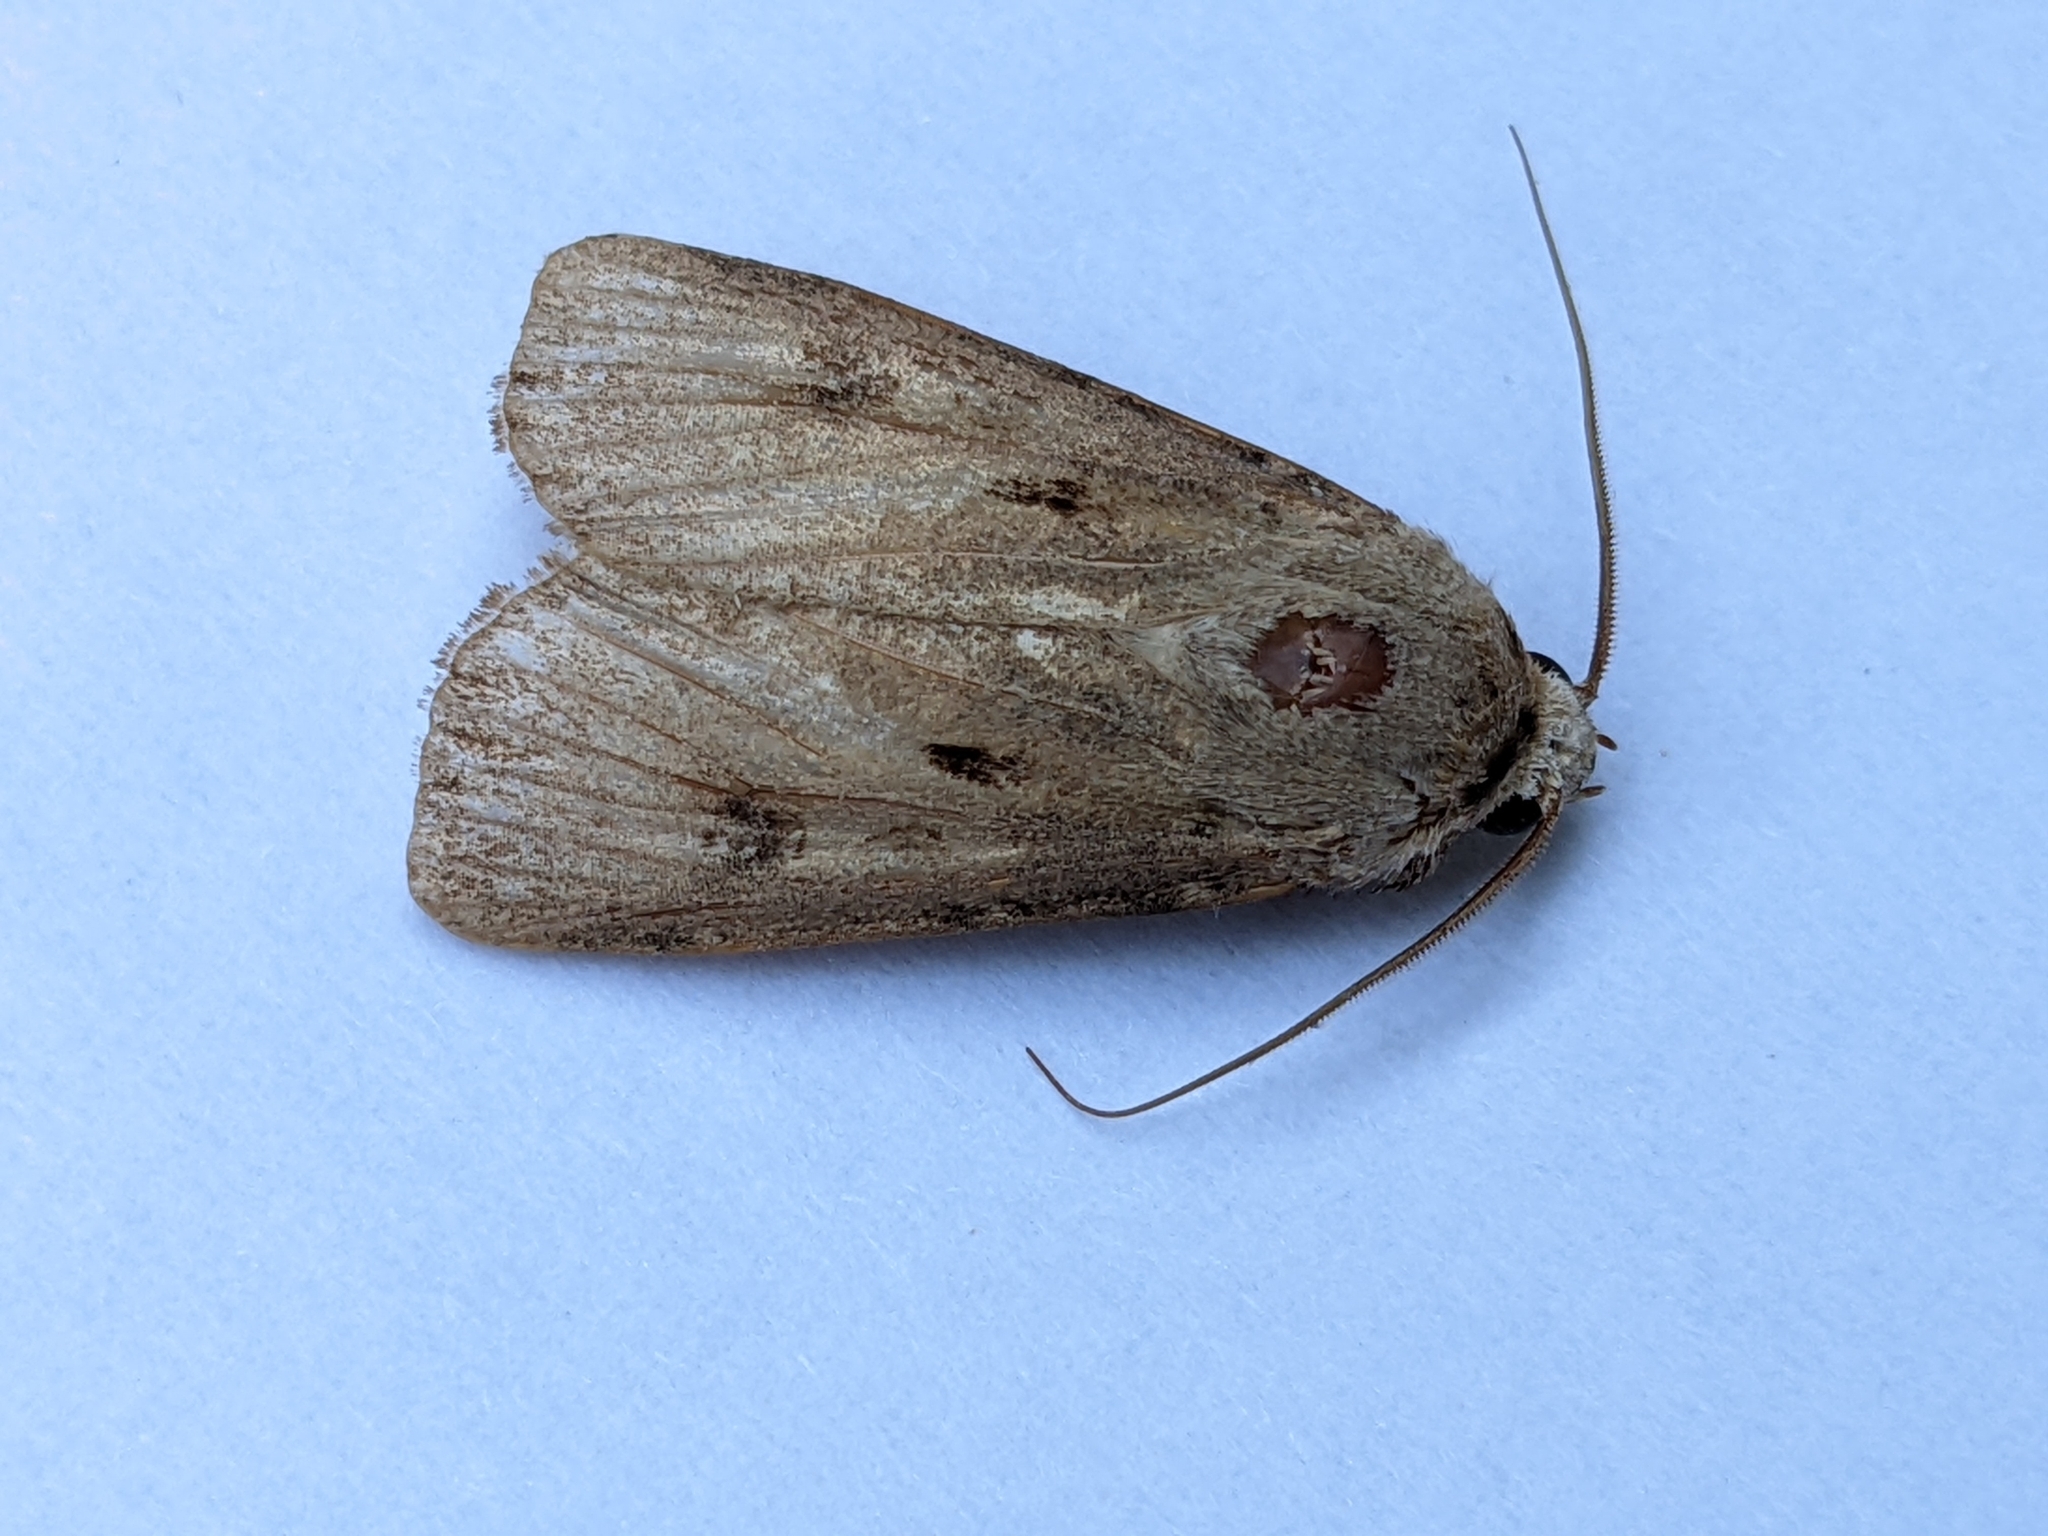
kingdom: Animalia
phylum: Arthropoda
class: Insecta
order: Lepidoptera
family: Noctuidae
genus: Agrotis
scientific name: Agrotis exclamationis
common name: Heart and dart
